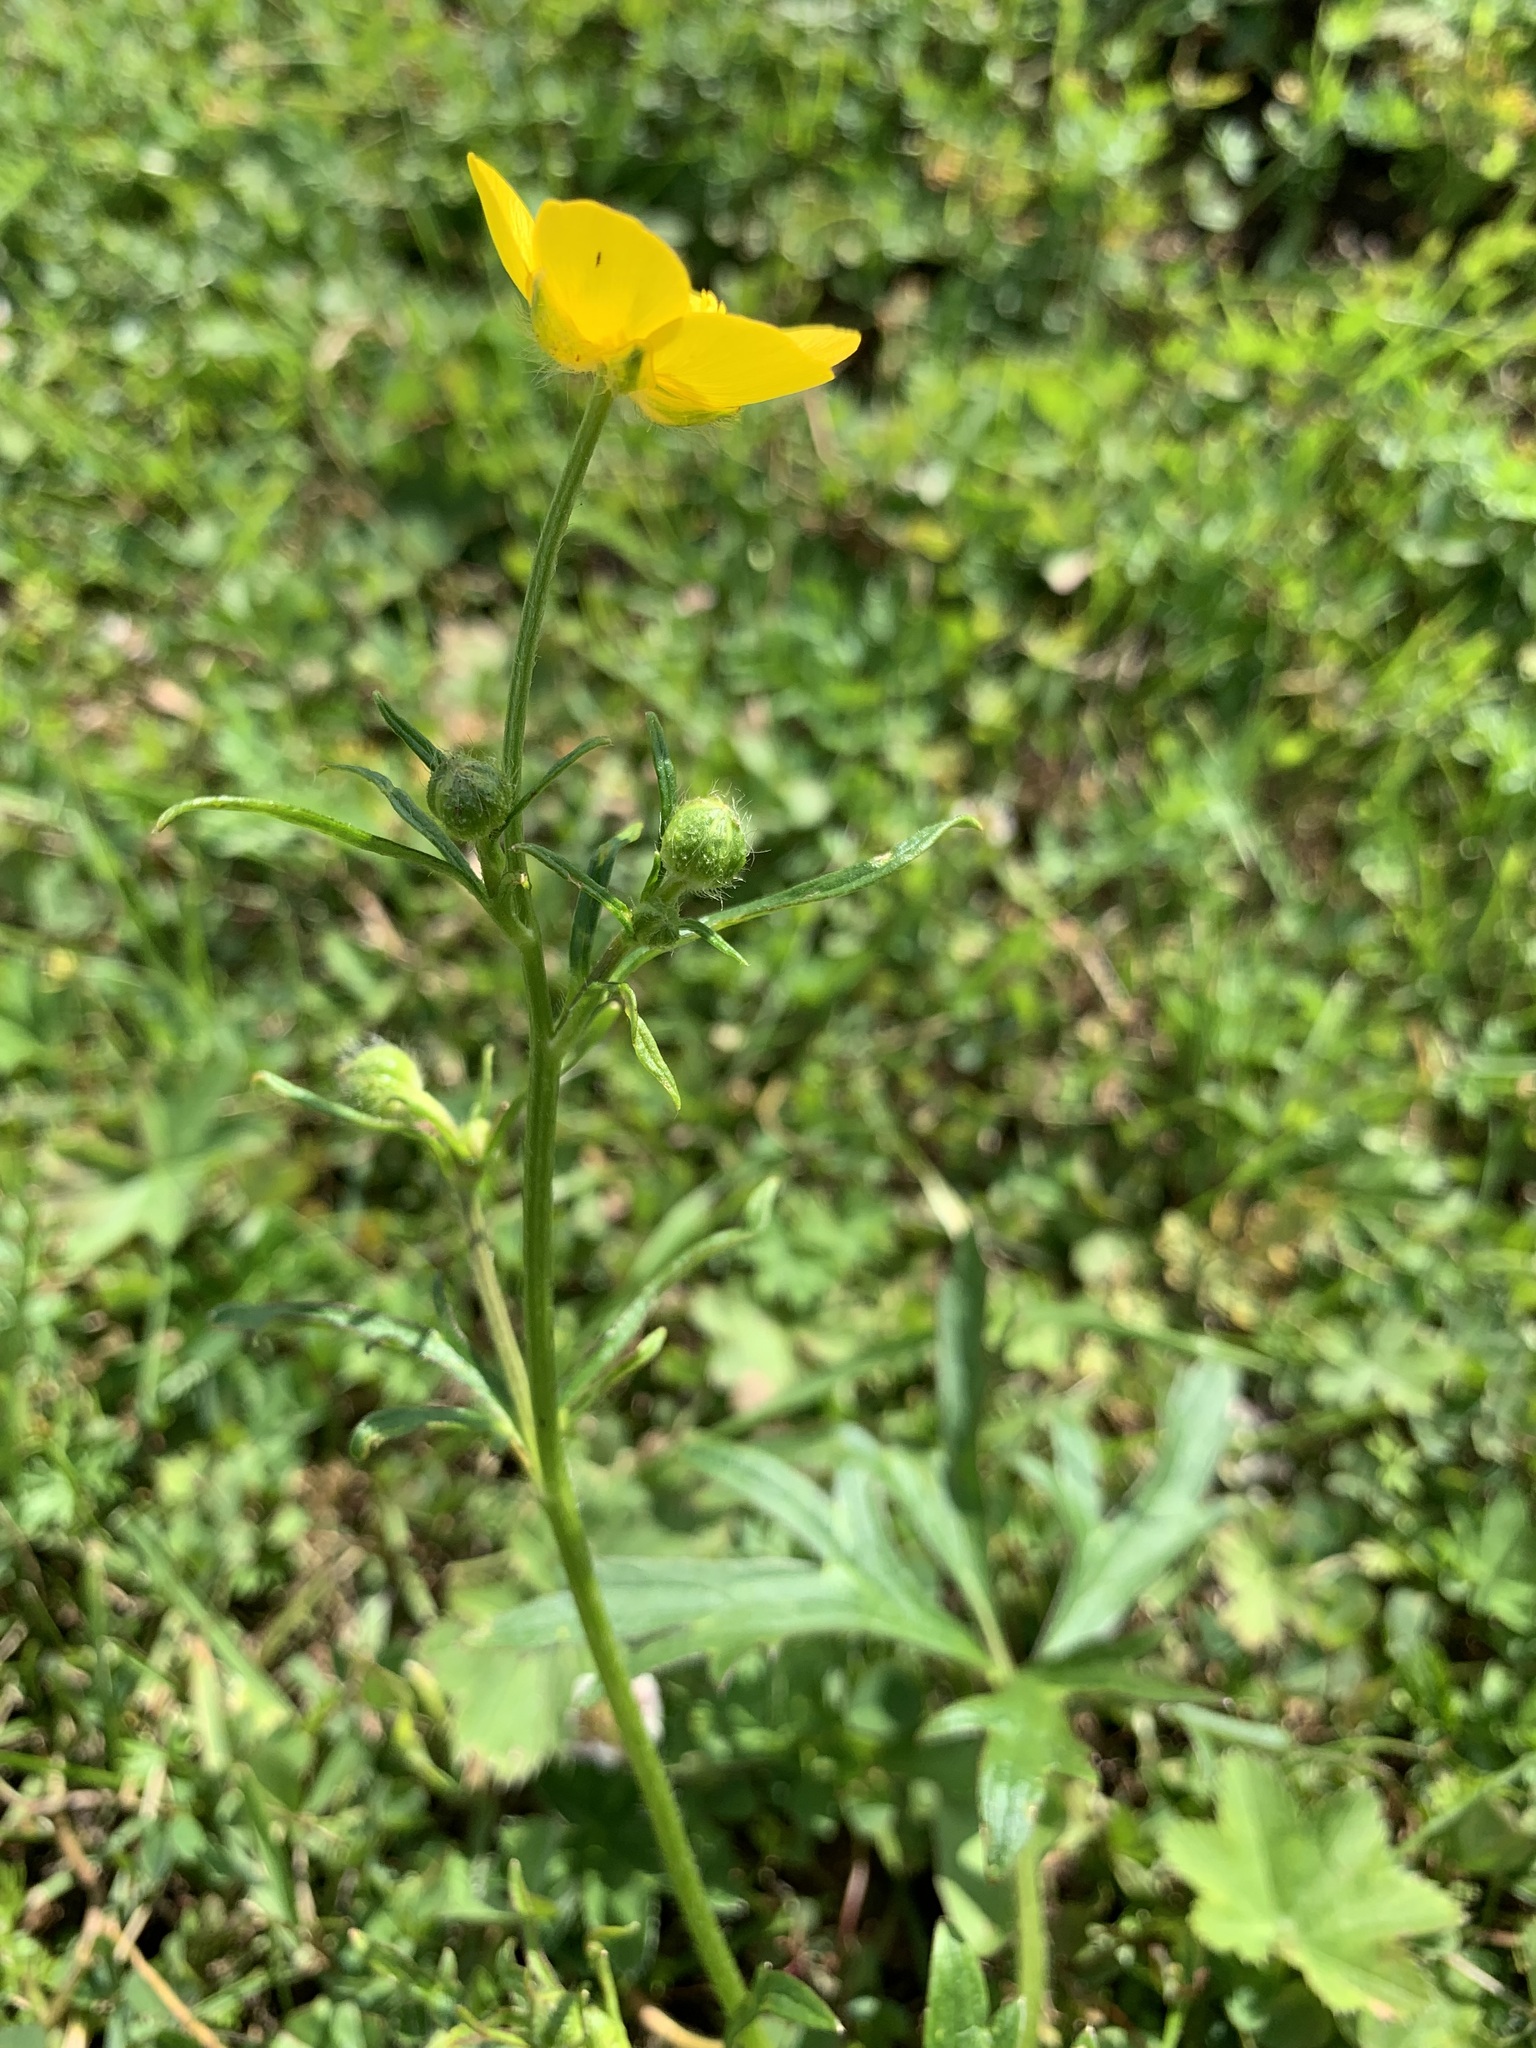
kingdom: Plantae
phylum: Tracheophyta
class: Magnoliopsida
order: Ranunculales
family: Ranunculaceae
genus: Ranunculus
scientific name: Ranunculus polyanthemos
